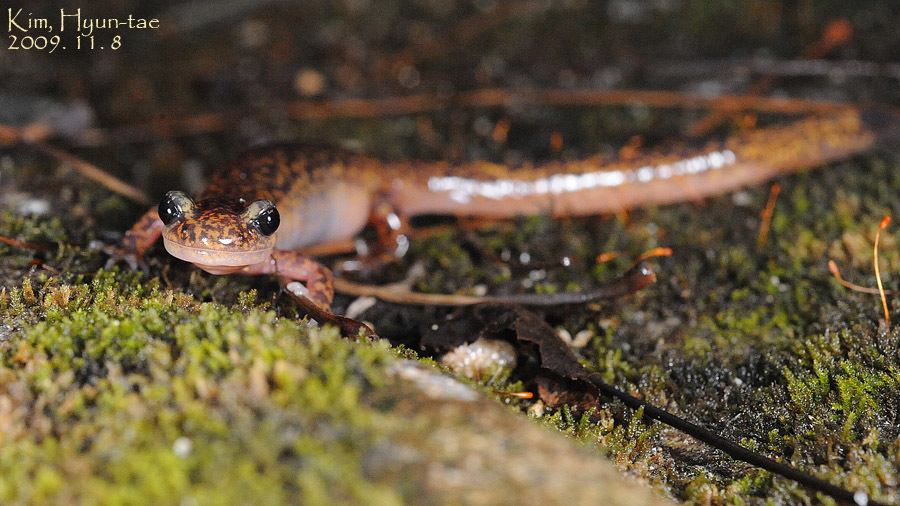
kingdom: Animalia
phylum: Chordata
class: Amphibia
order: Caudata
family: Hynobiidae
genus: Onychodactylus
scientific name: Onychodactylus koreanus
